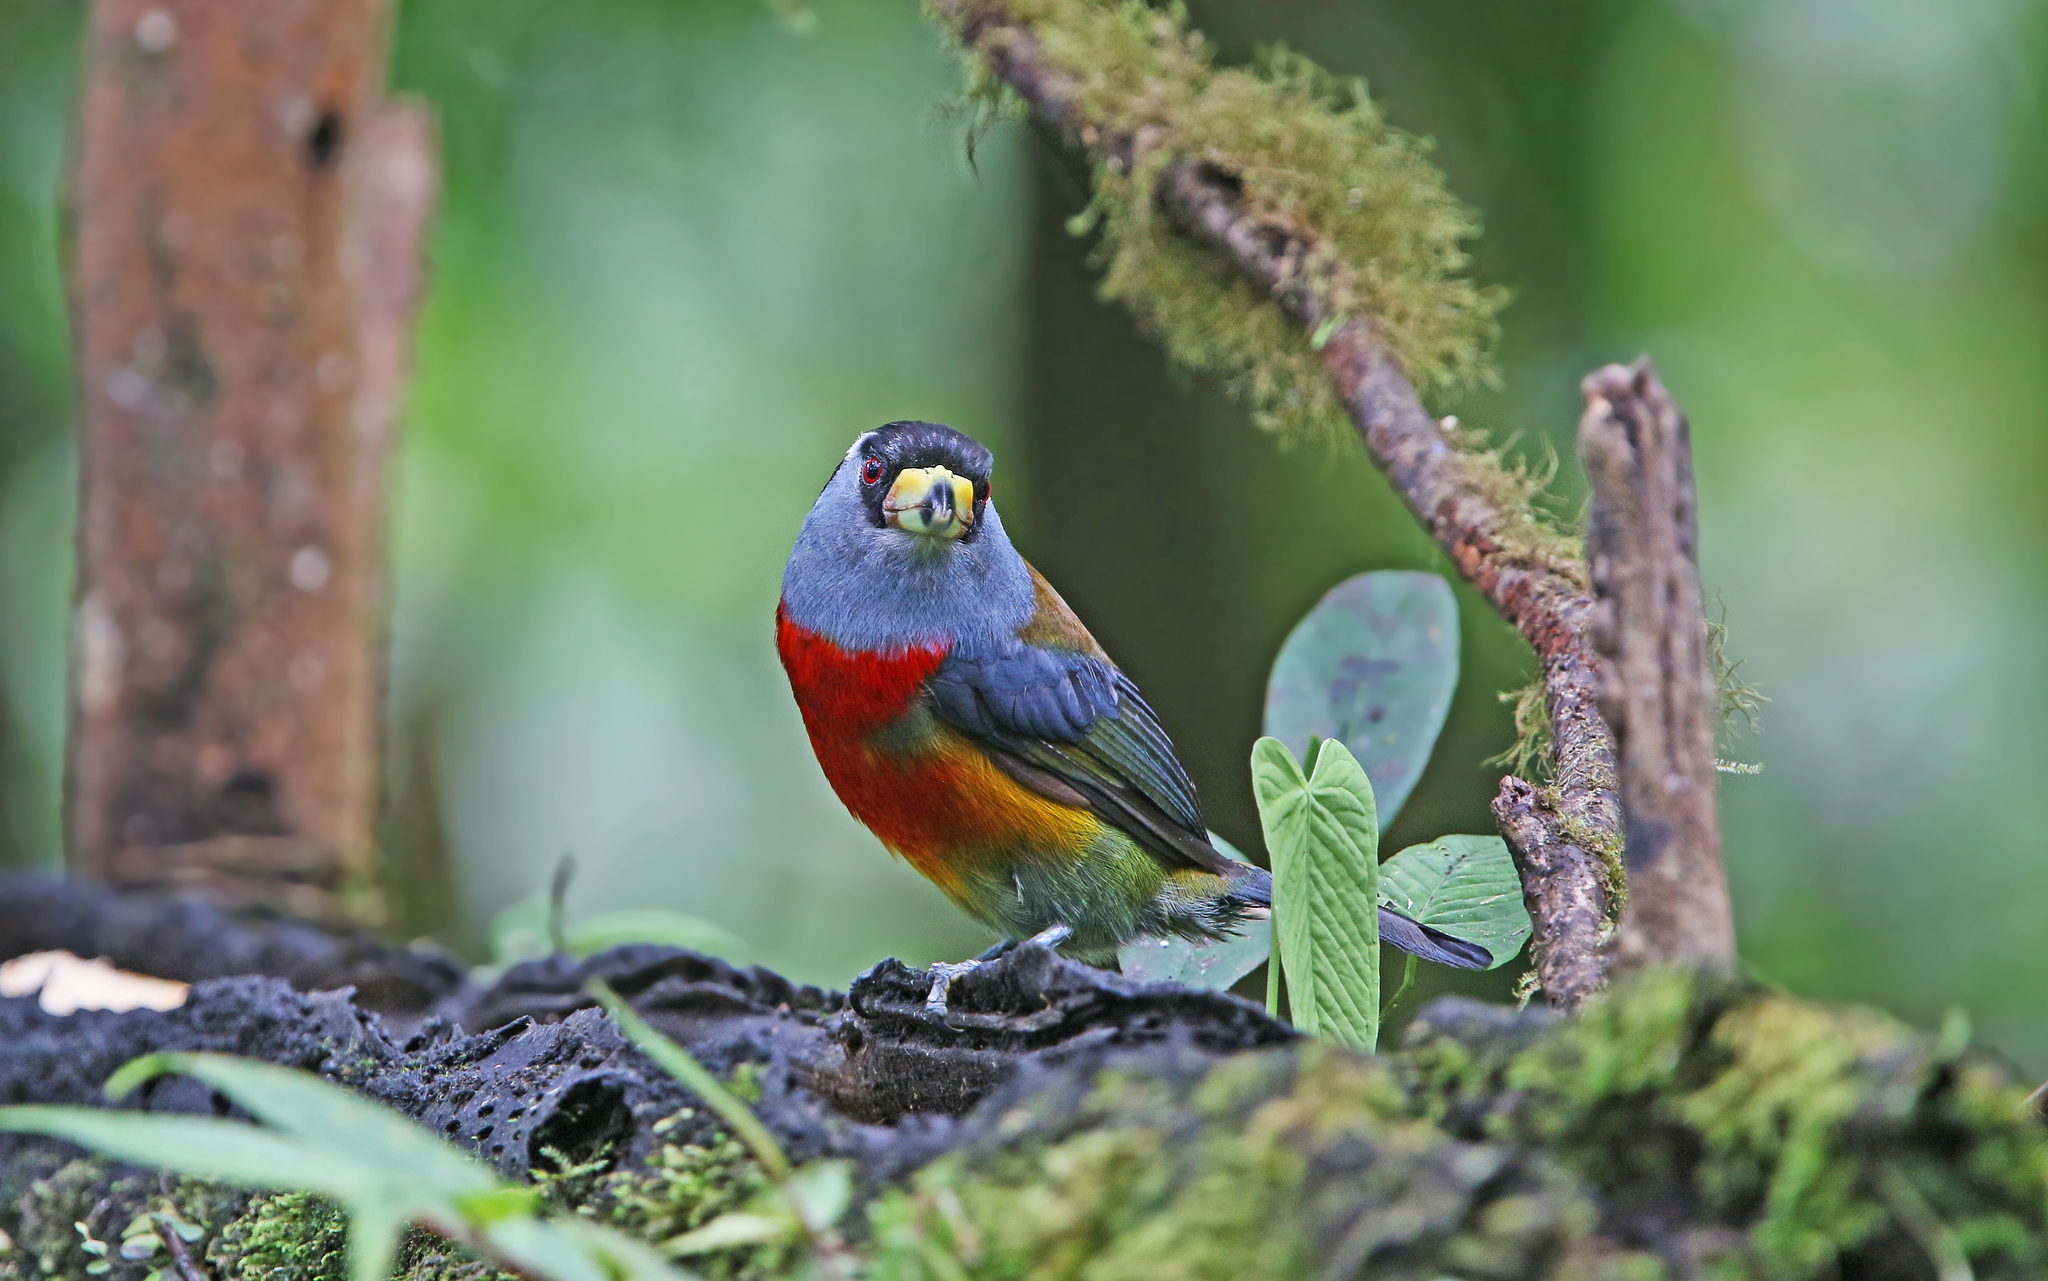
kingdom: Animalia
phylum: Chordata
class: Aves
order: Piciformes
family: Semnornithidae
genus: Semnornis
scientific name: Semnornis ramphastinus
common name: Toucan barbet
